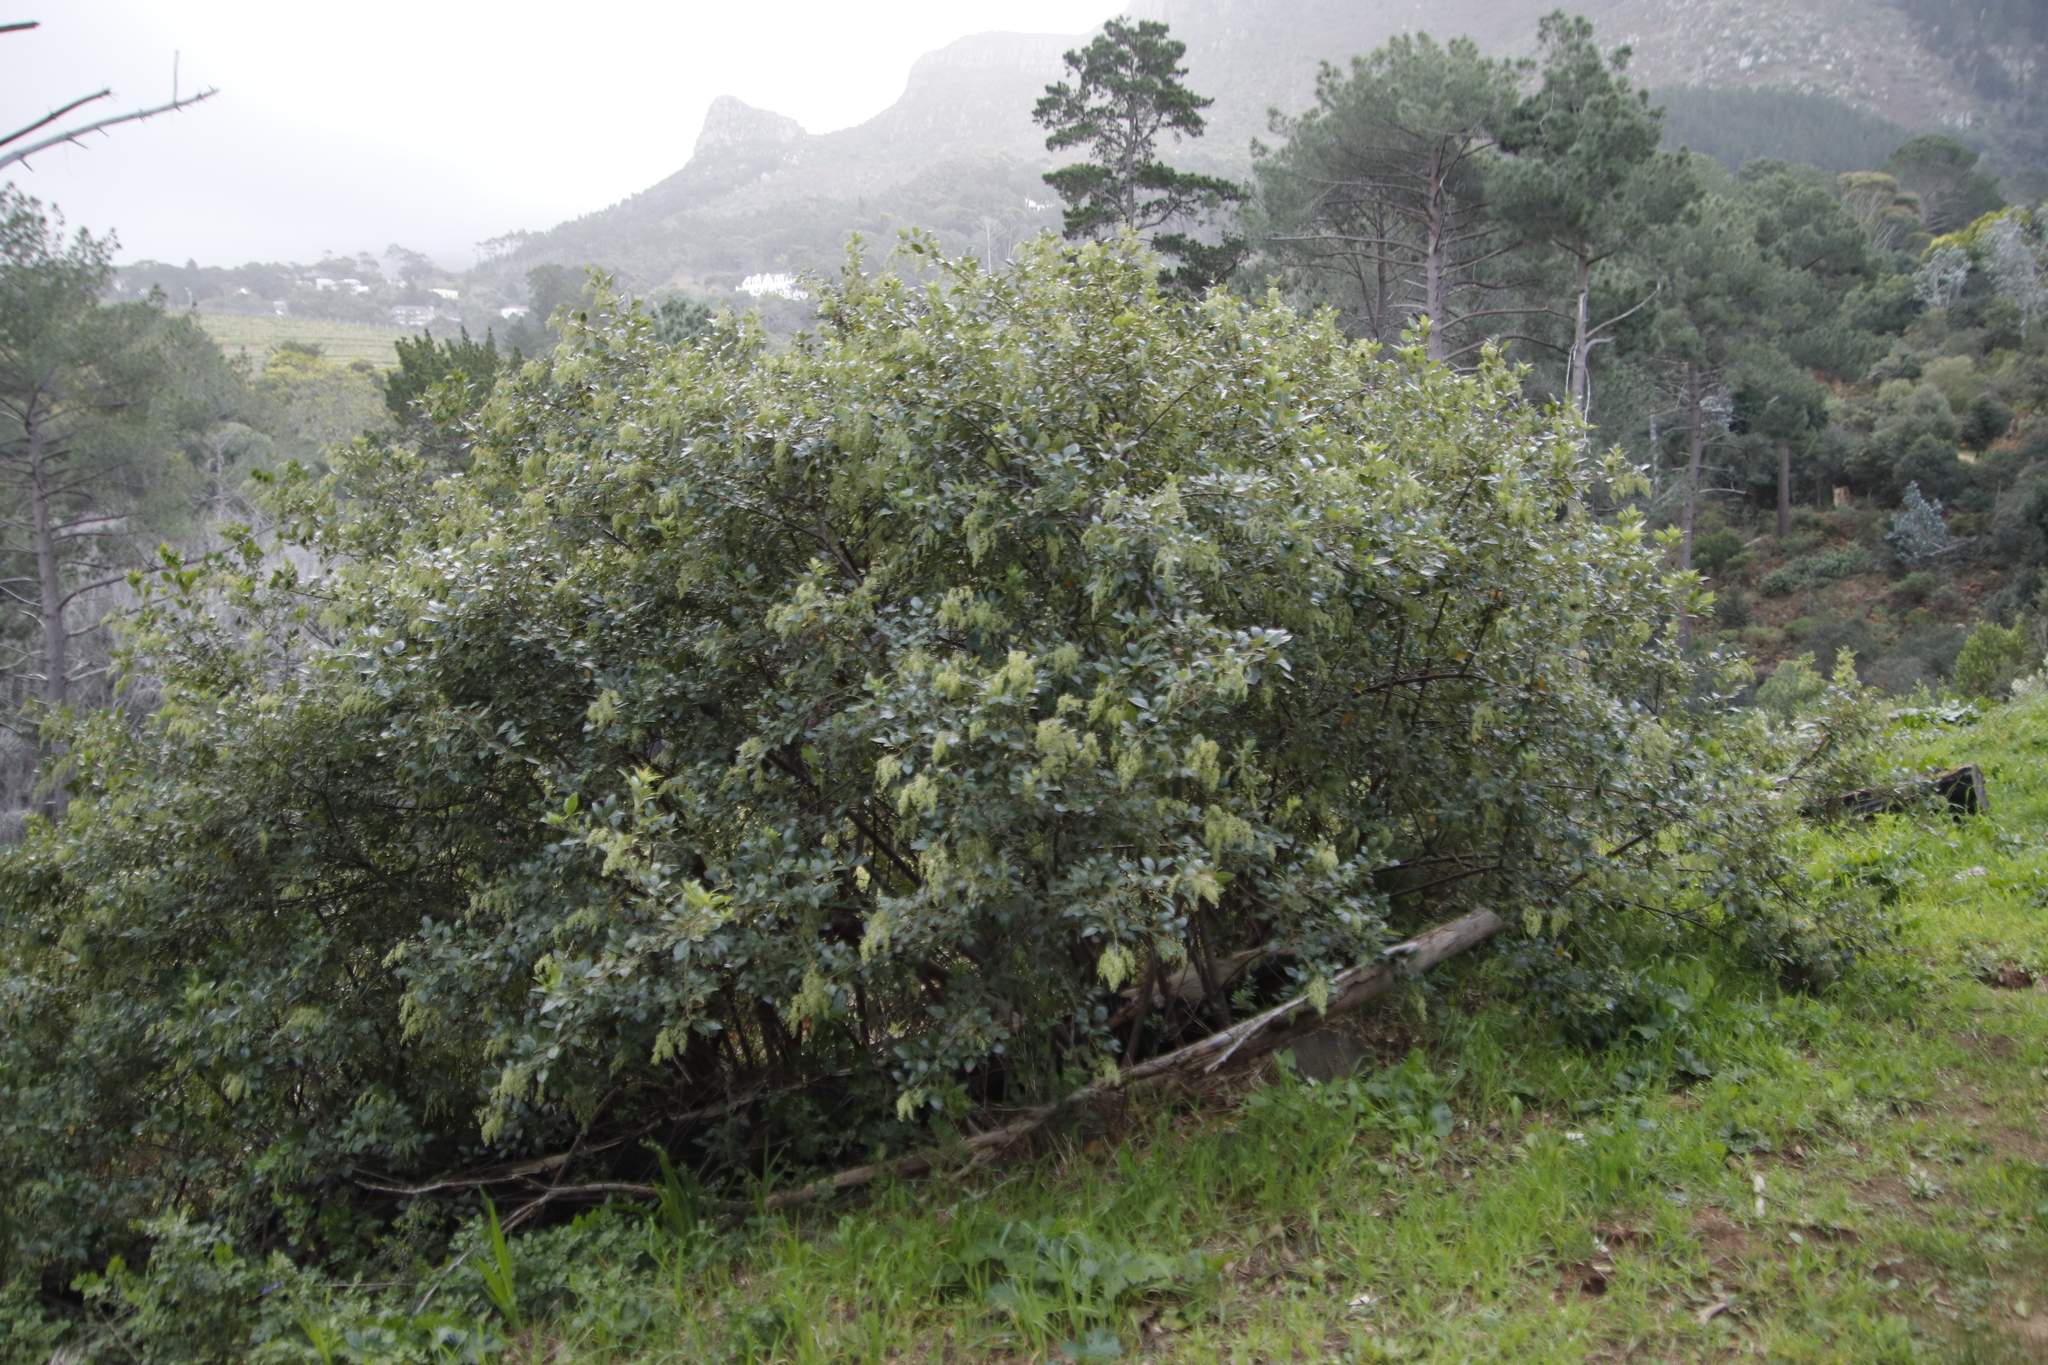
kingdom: Plantae
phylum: Tracheophyta
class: Magnoliopsida
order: Sapindales
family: Anacardiaceae
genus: Searsia
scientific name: Searsia tomentosa
